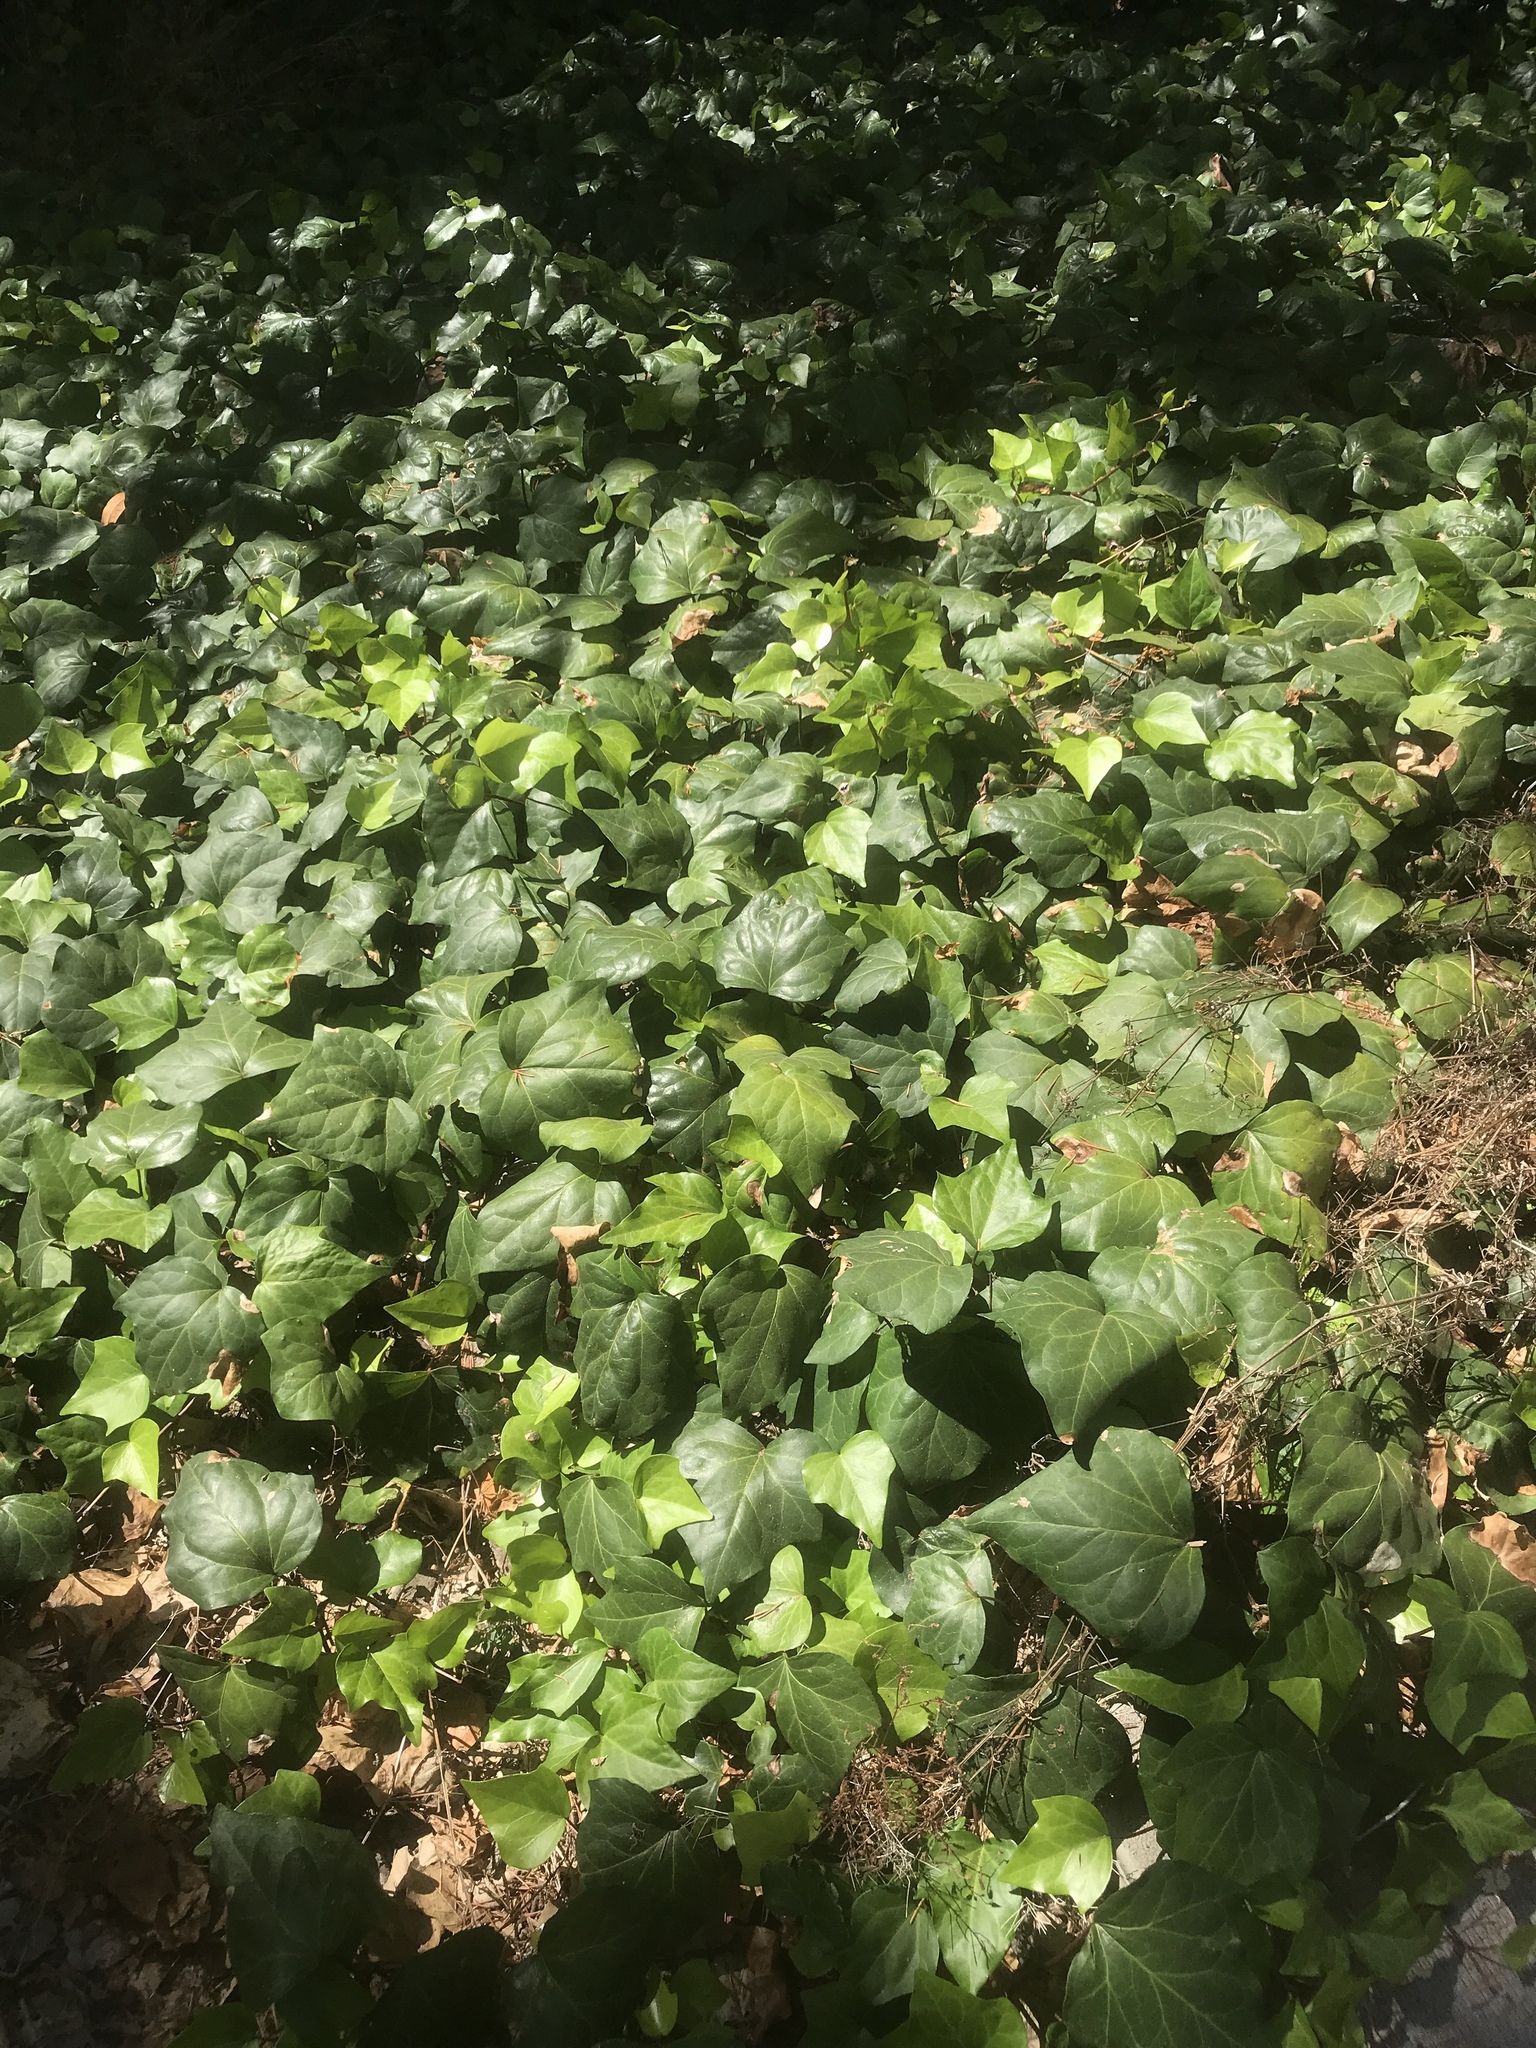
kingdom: Plantae
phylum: Tracheophyta
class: Magnoliopsida
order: Apiales
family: Araliaceae
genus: Hedera
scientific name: Hedera canariensis
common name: Madeira ivy
